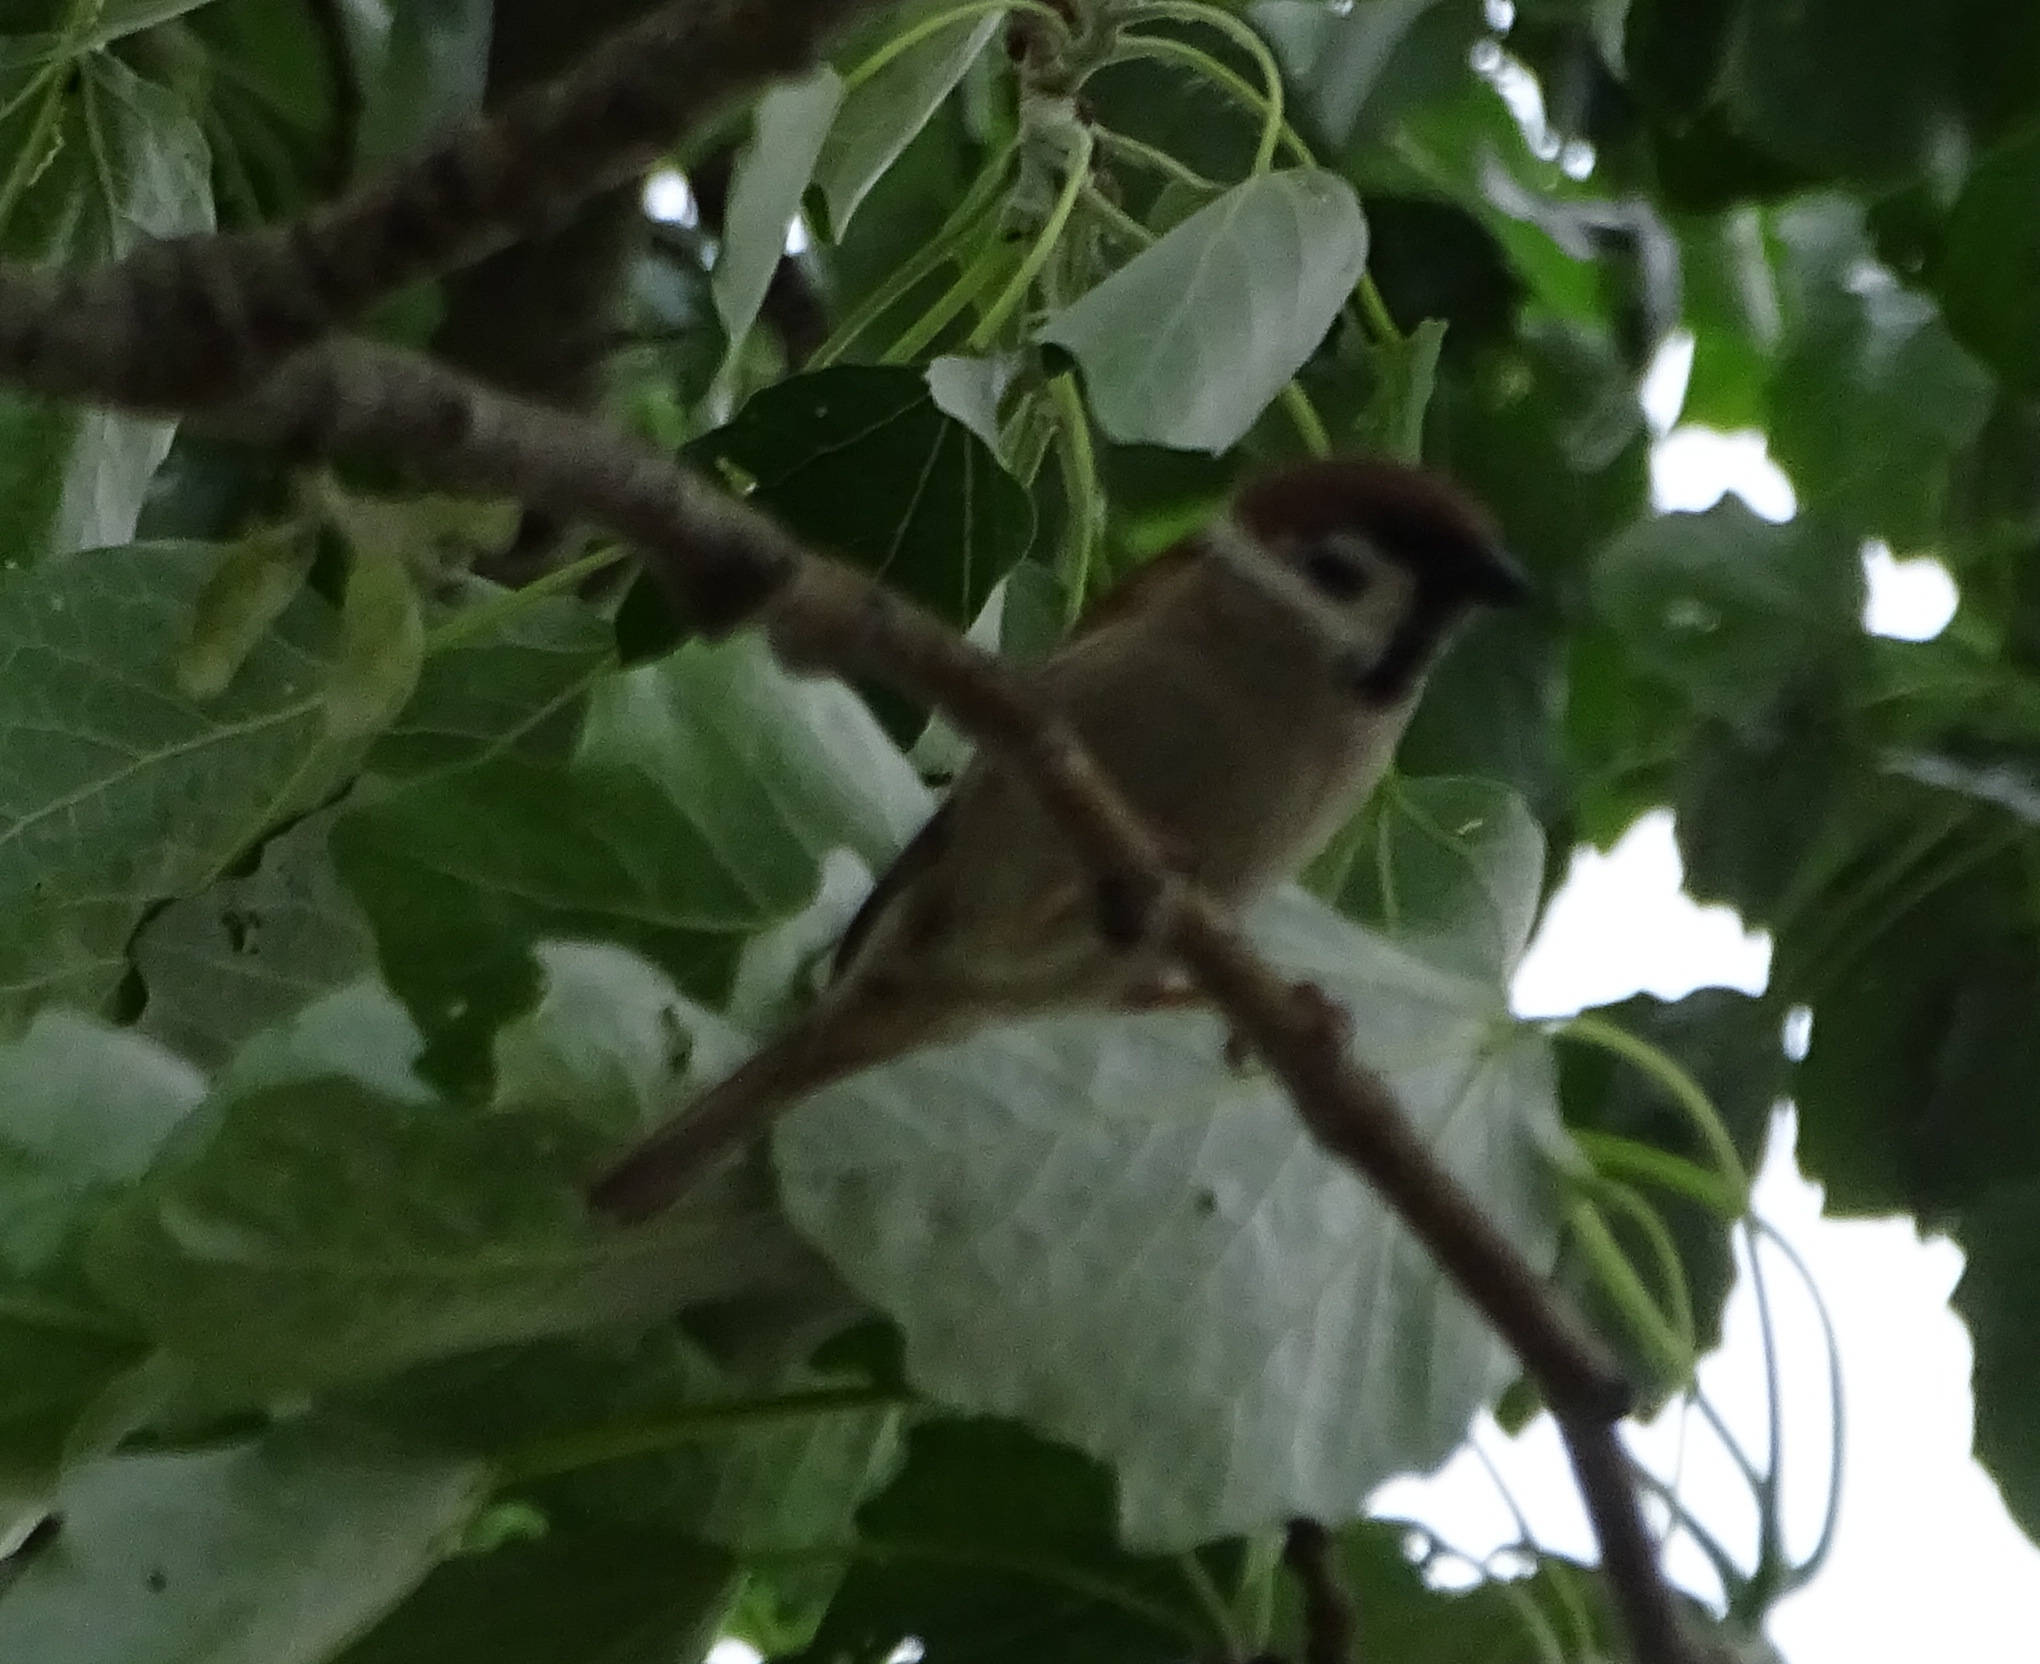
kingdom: Animalia
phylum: Chordata
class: Aves
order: Passeriformes
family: Passeridae
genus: Passer
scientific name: Passer montanus
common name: Eurasian tree sparrow
